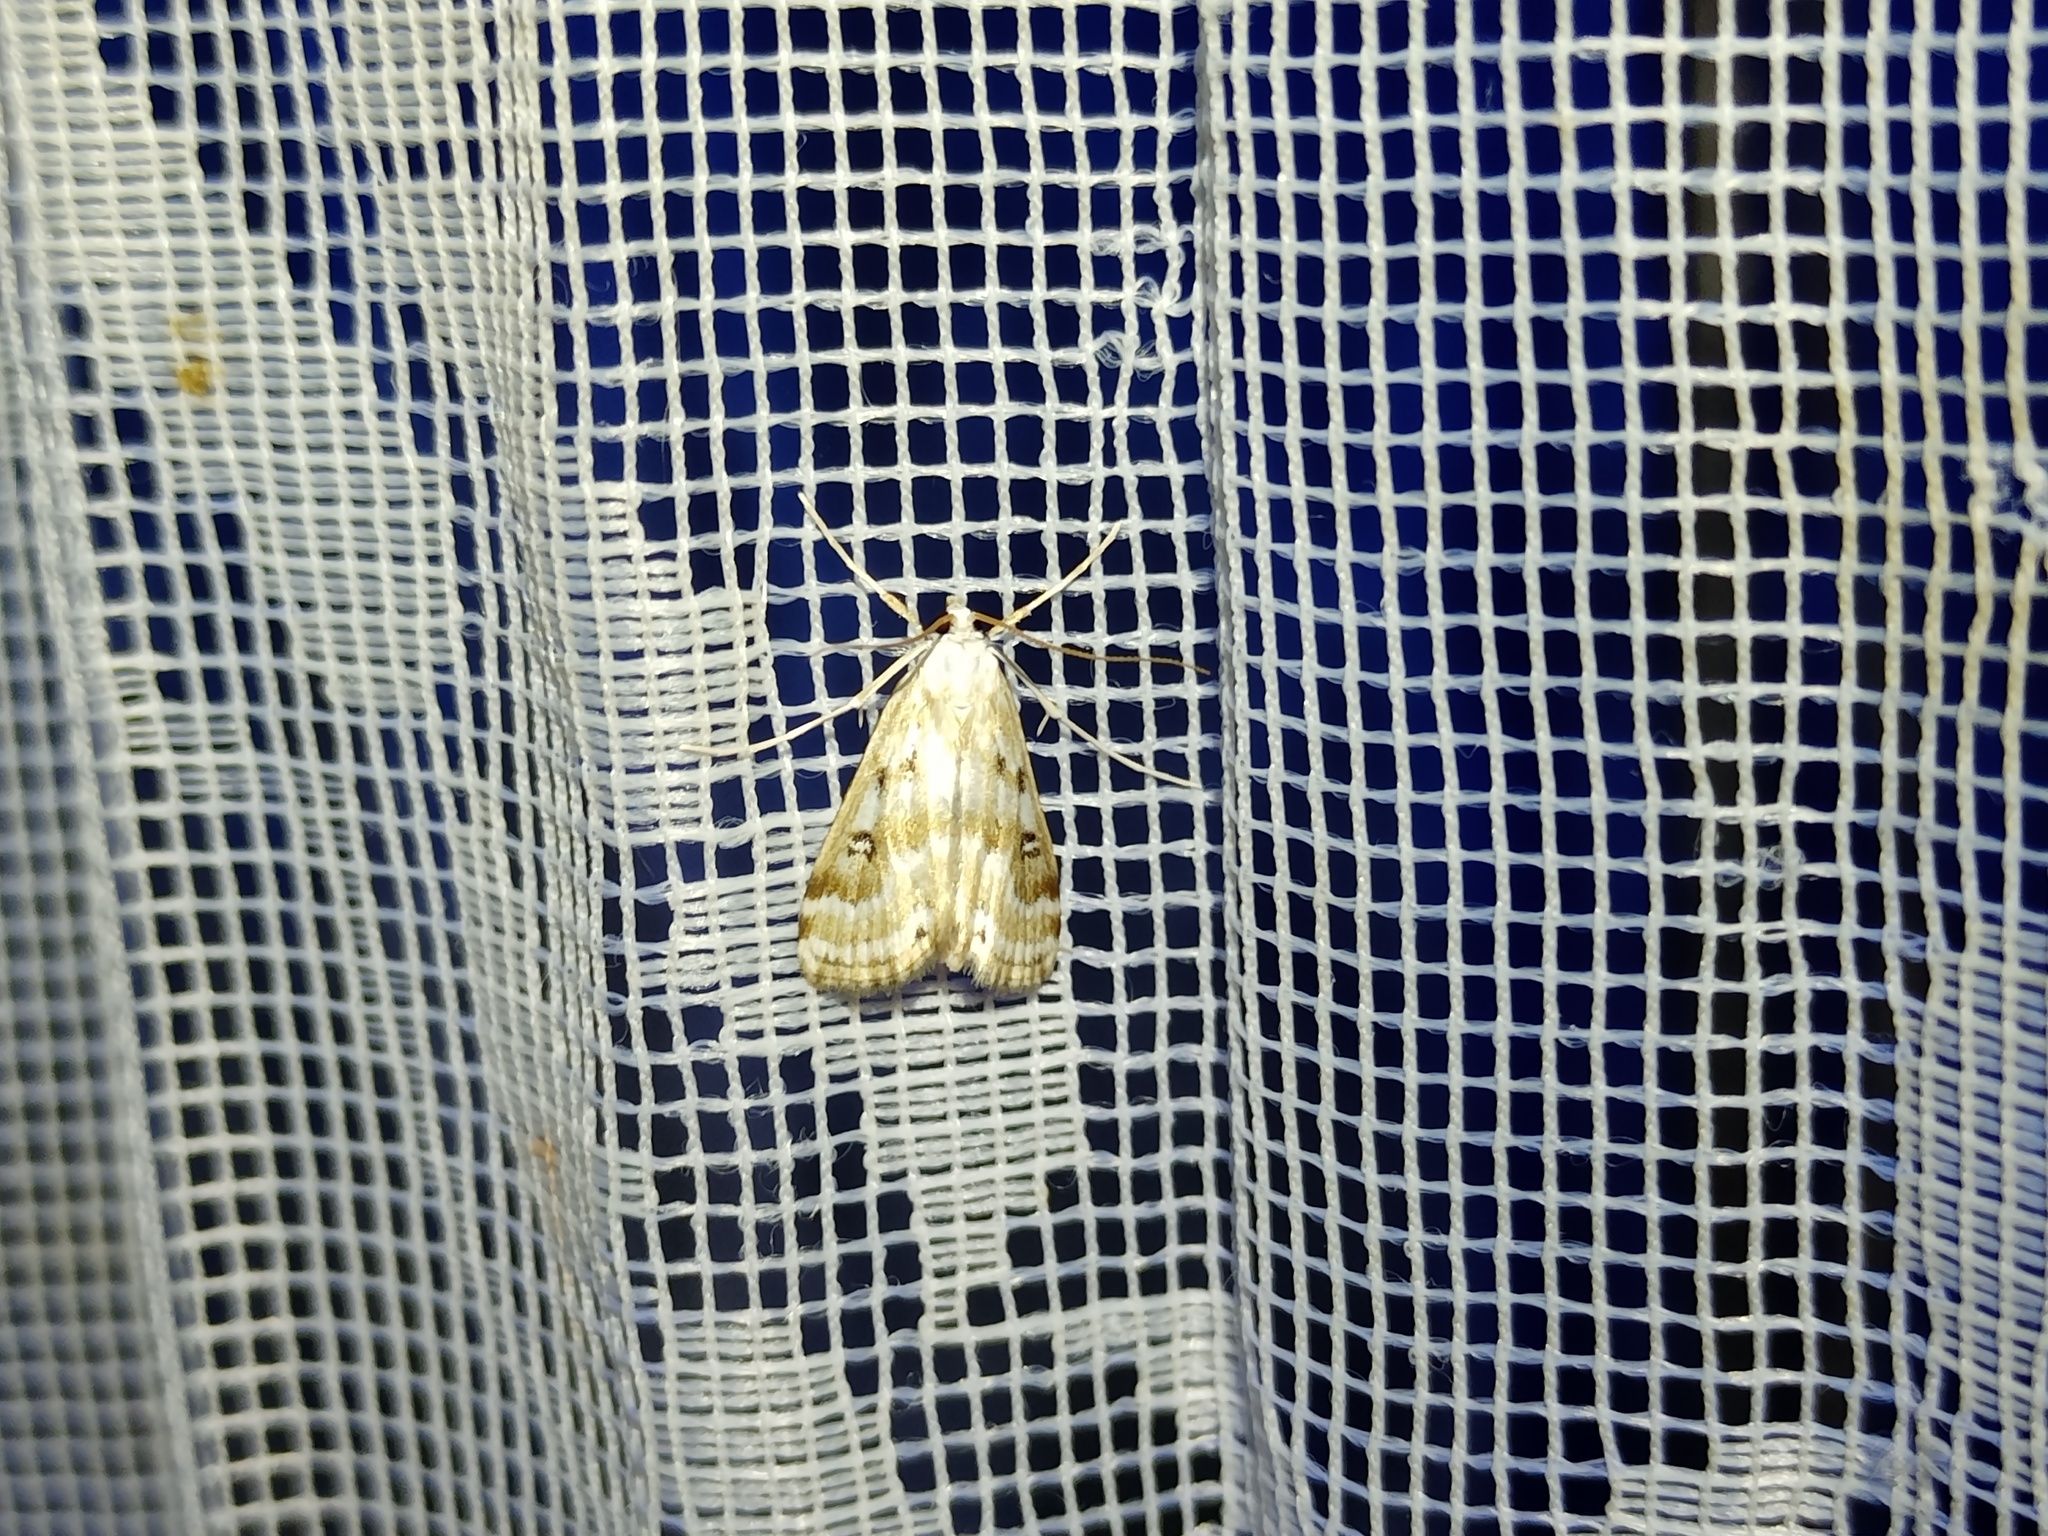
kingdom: Animalia
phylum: Arthropoda
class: Insecta
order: Lepidoptera
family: Crambidae
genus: Parapoynx
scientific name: Parapoynx stratiotata
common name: Ringed china-mark
